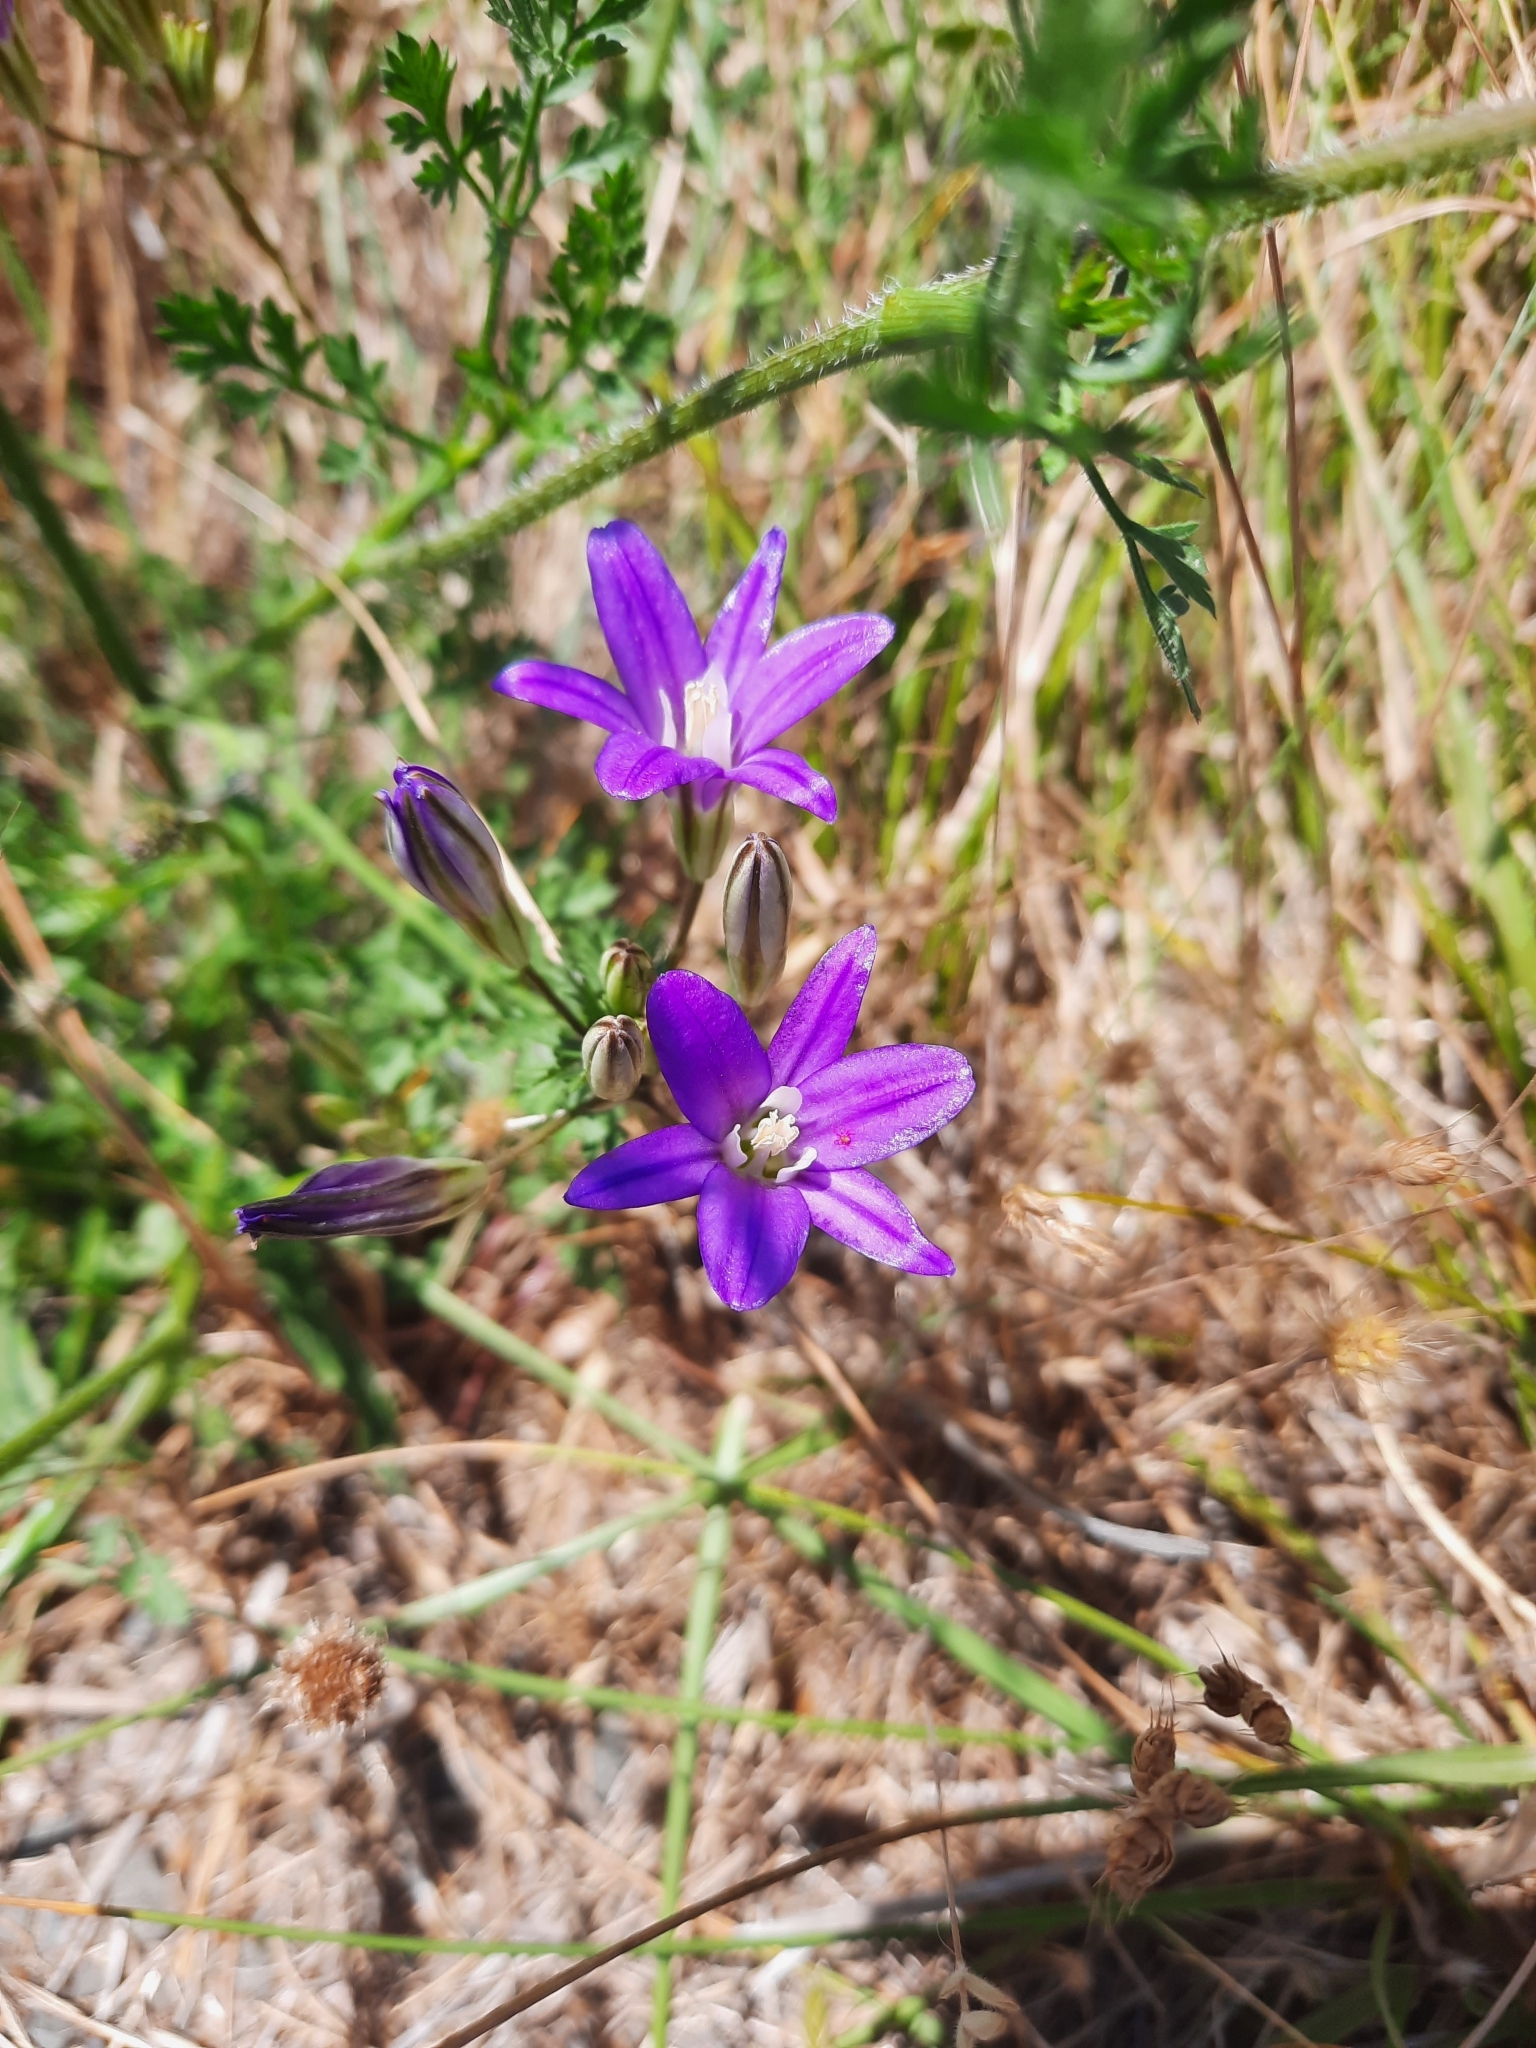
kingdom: Plantae
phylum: Tracheophyta
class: Liliopsida
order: Asparagales
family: Asparagaceae
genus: Brodiaea
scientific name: Brodiaea coronaria
